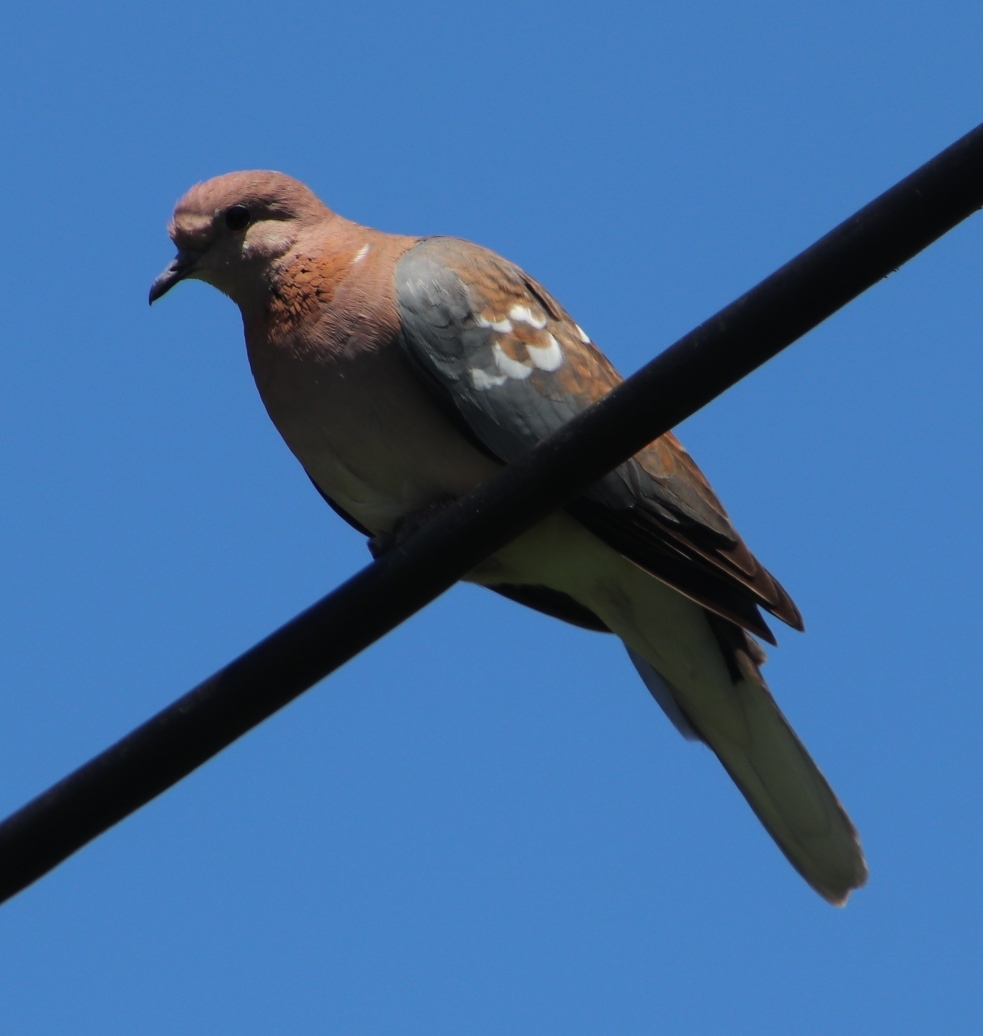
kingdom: Animalia
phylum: Chordata
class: Aves
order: Columbiformes
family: Columbidae
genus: Spilopelia
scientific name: Spilopelia senegalensis
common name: Laughing dove
